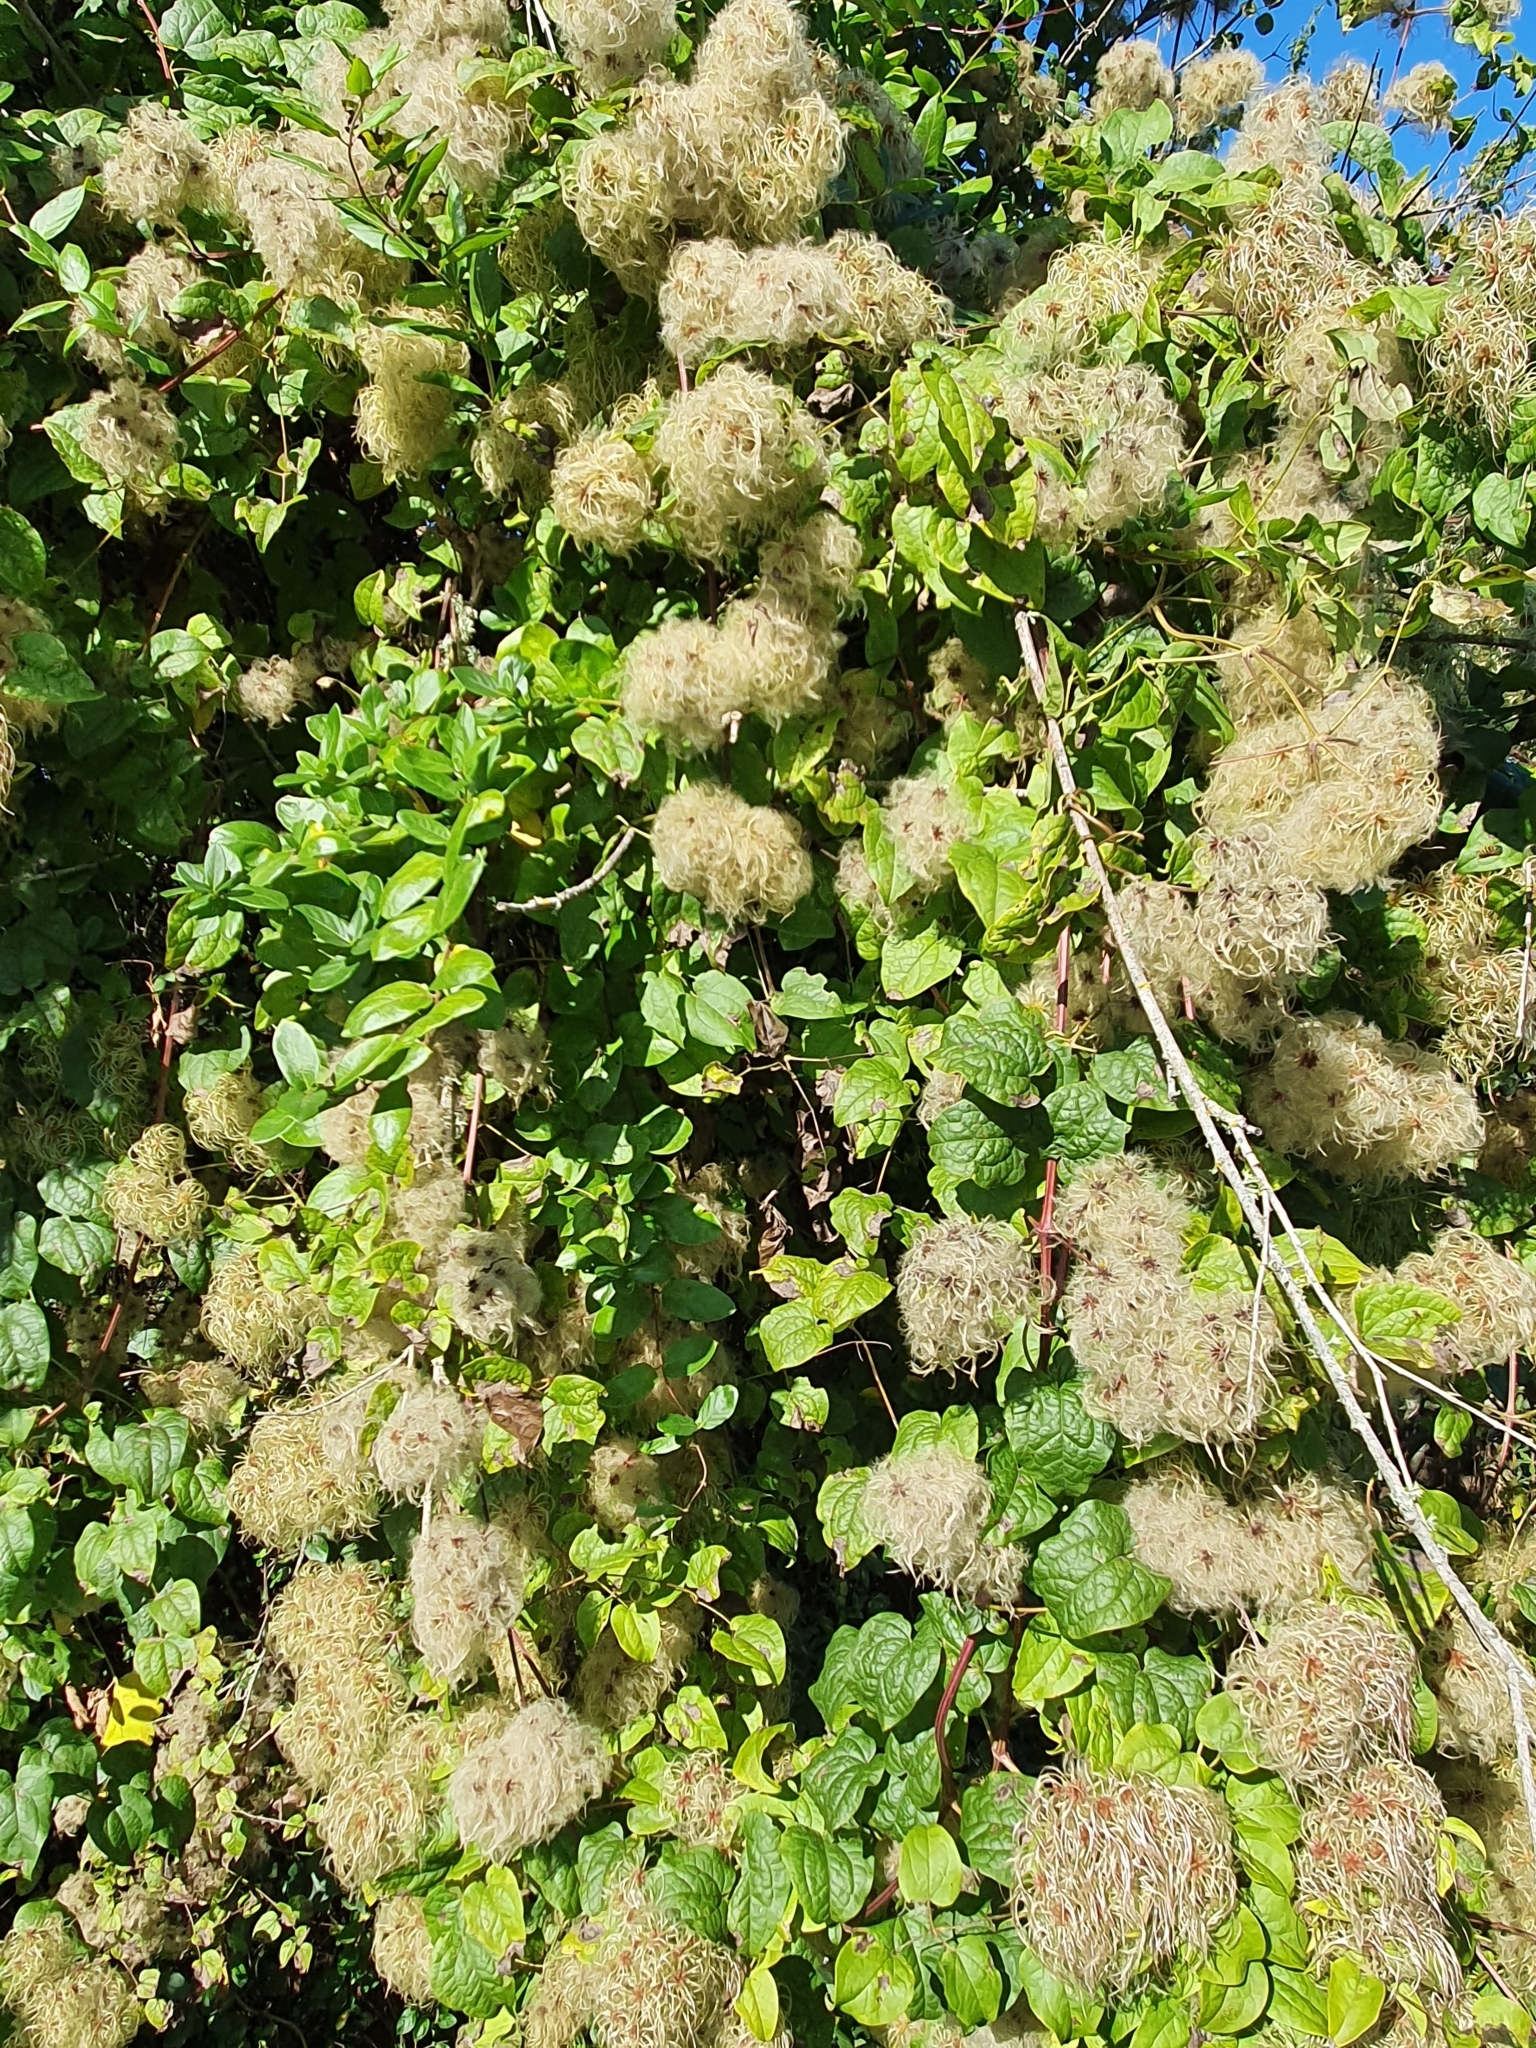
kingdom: Plantae
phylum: Tracheophyta
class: Magnoliopsida
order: Ranunculales
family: Ranunculaceae
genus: Clematis
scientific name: Clematis vitalba
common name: Evergreen clematis
